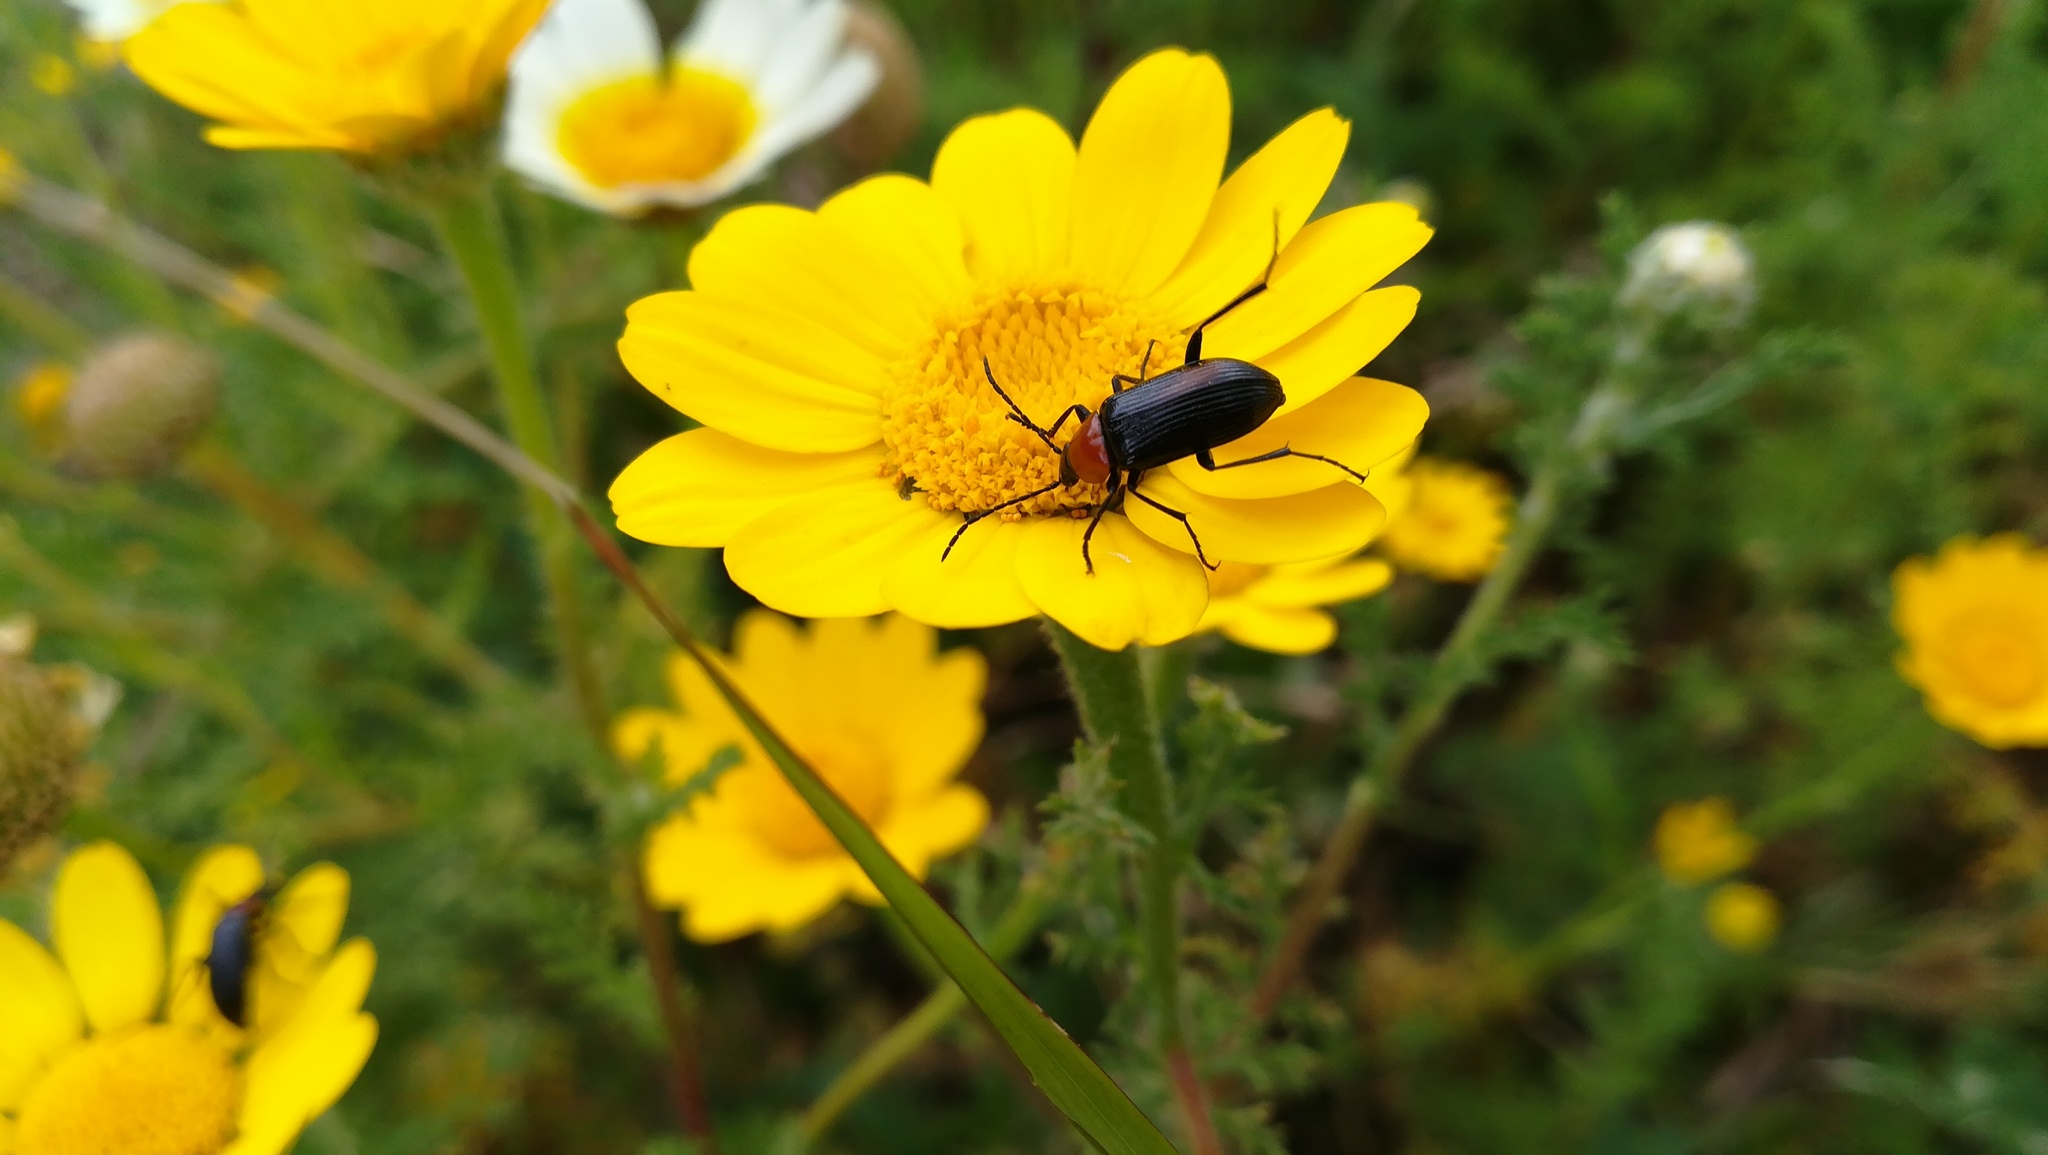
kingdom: Animalia
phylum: Arthropoda
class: Insecta
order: Coleoptera
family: Tenebrionidae
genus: Heliotaurus
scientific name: Heliotaurus ruficollis
